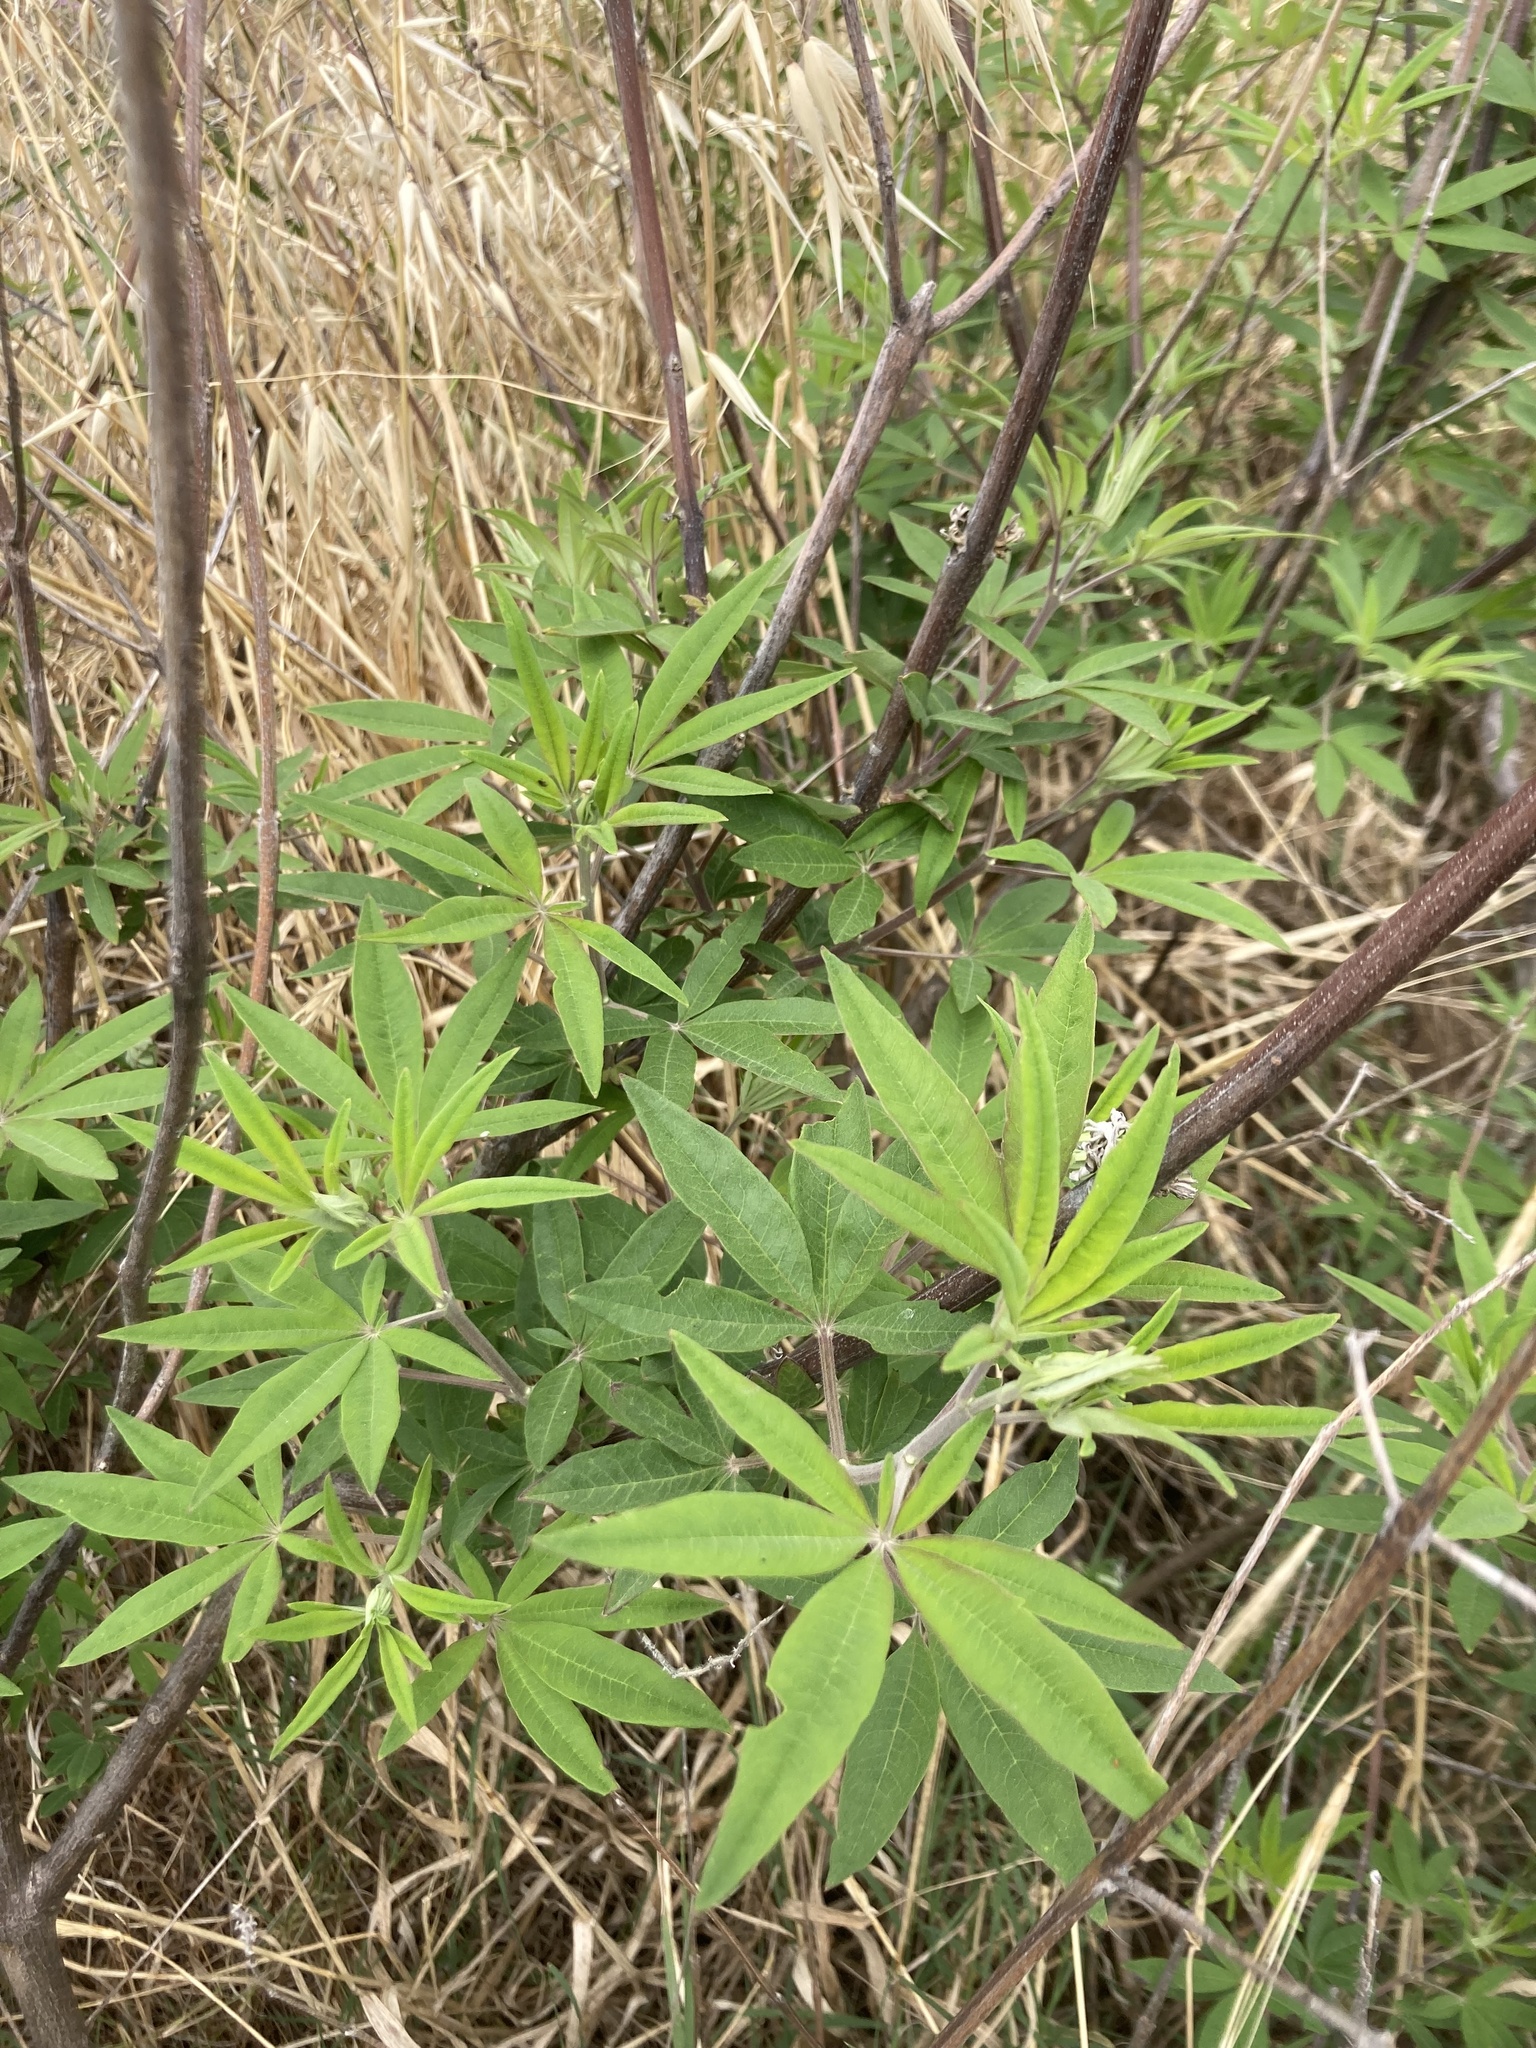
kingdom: Plantae
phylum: Tracheophyta
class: Magnoliopsida
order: Lamiales
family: Lamiaceae
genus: Vitex
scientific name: Vitex agnus-castus
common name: Chasteberry
